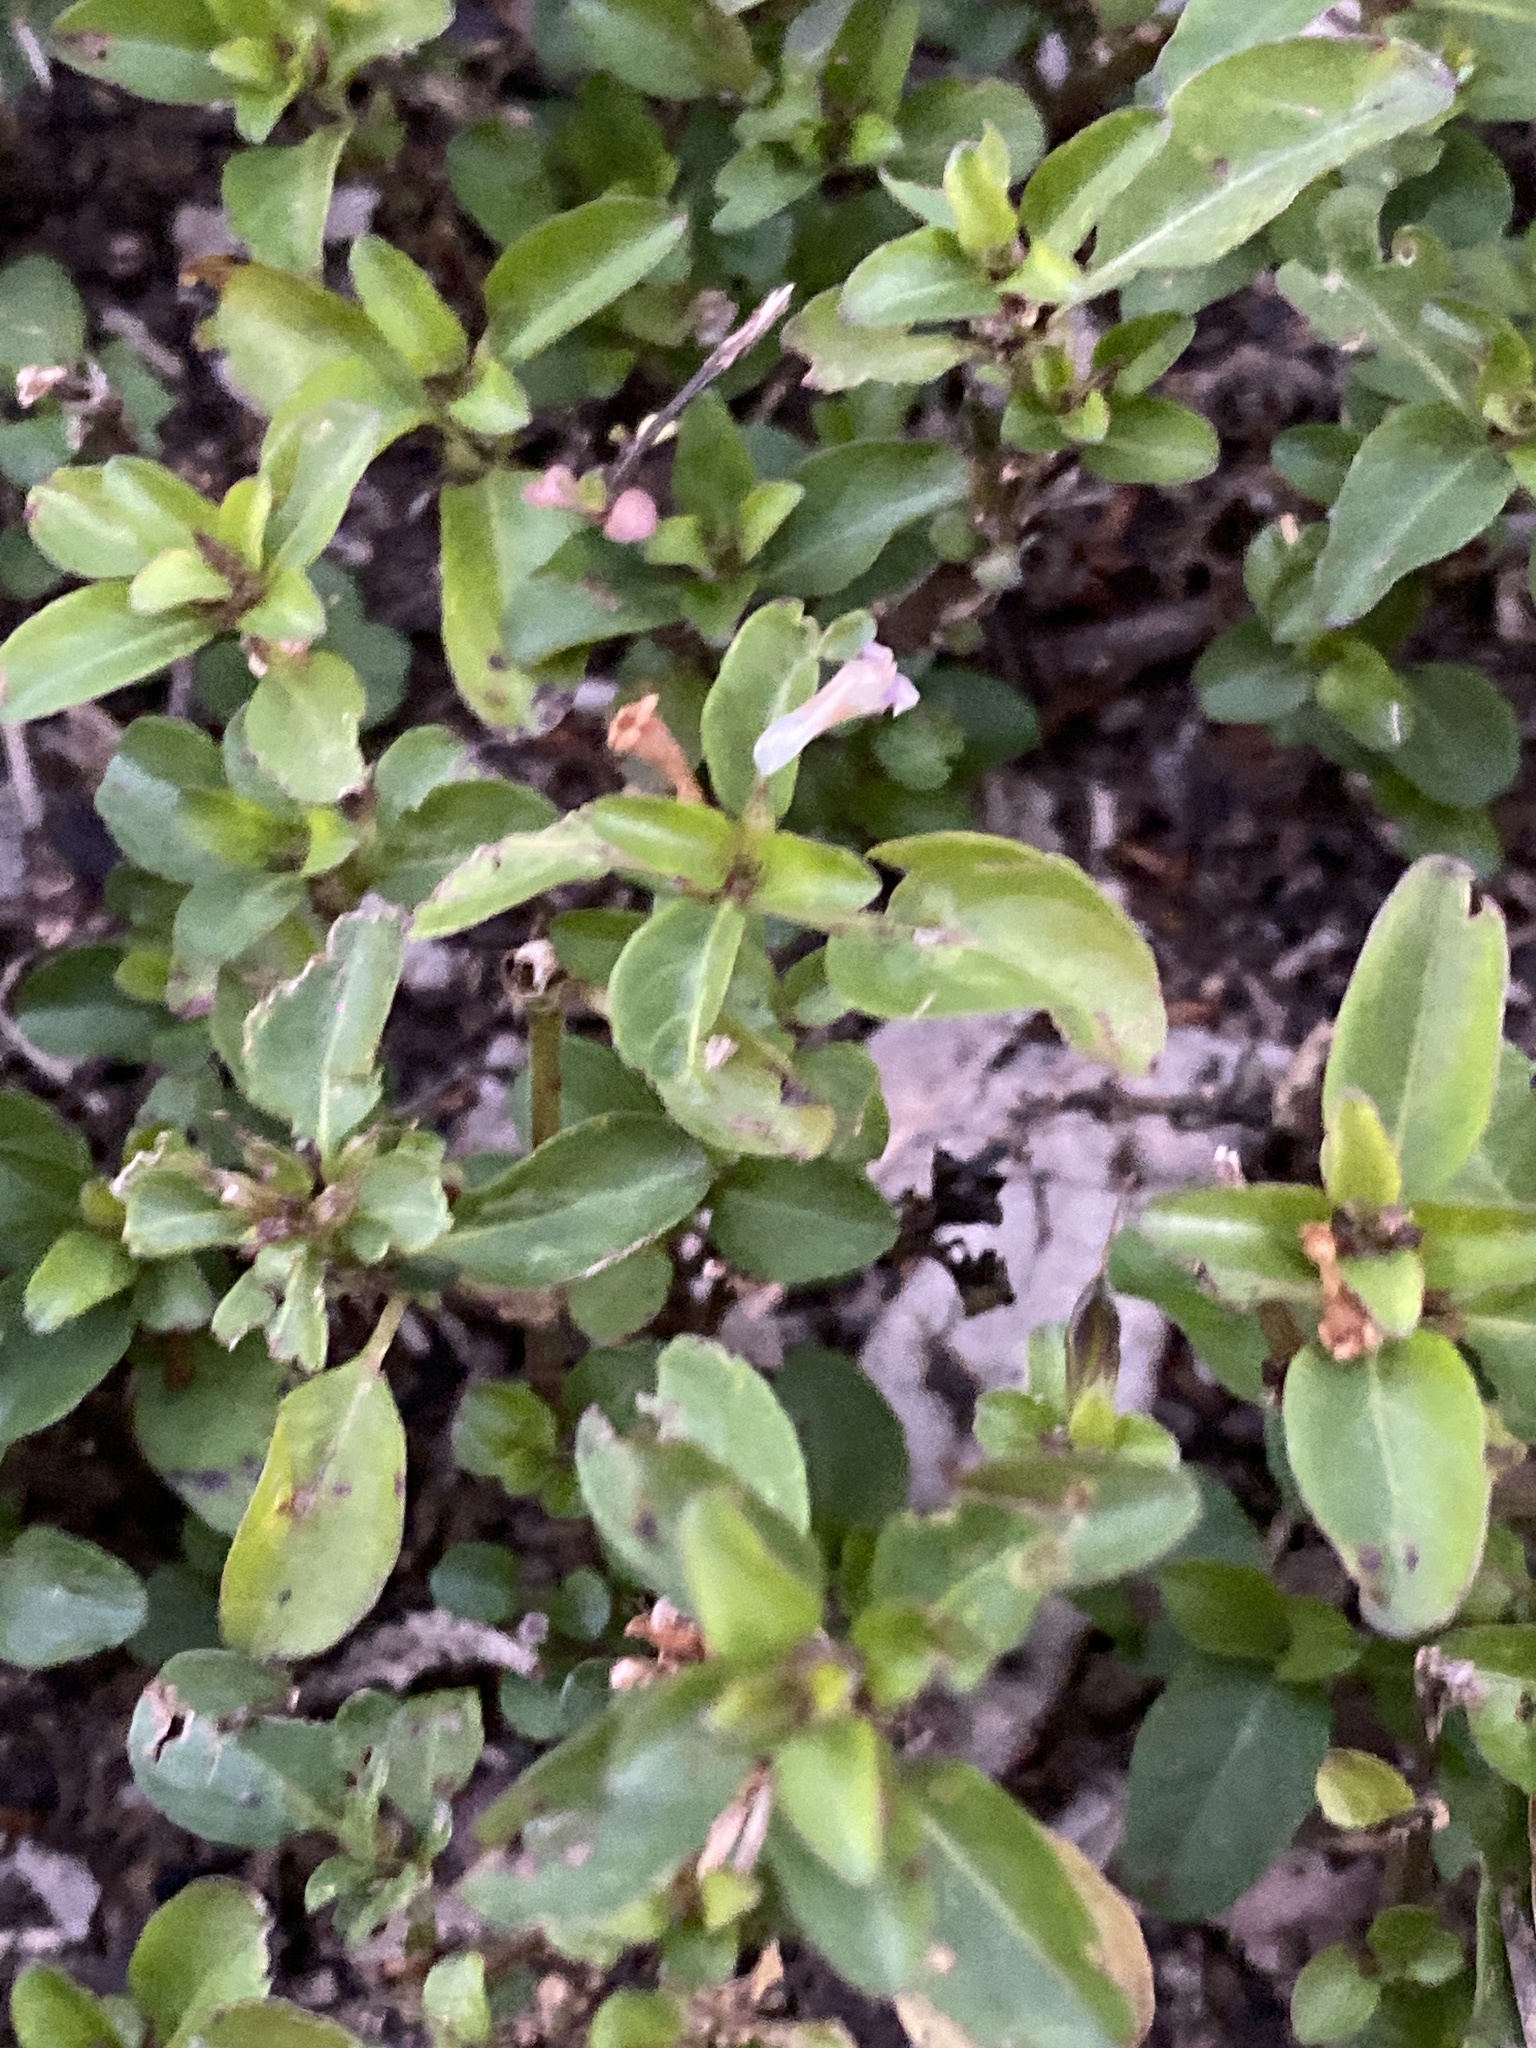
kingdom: Plantae
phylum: Tracheophyta
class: Magnoliopsida
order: Lamiales
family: Acanthaceae
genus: Hygrophila
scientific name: Hygrophila erecta
